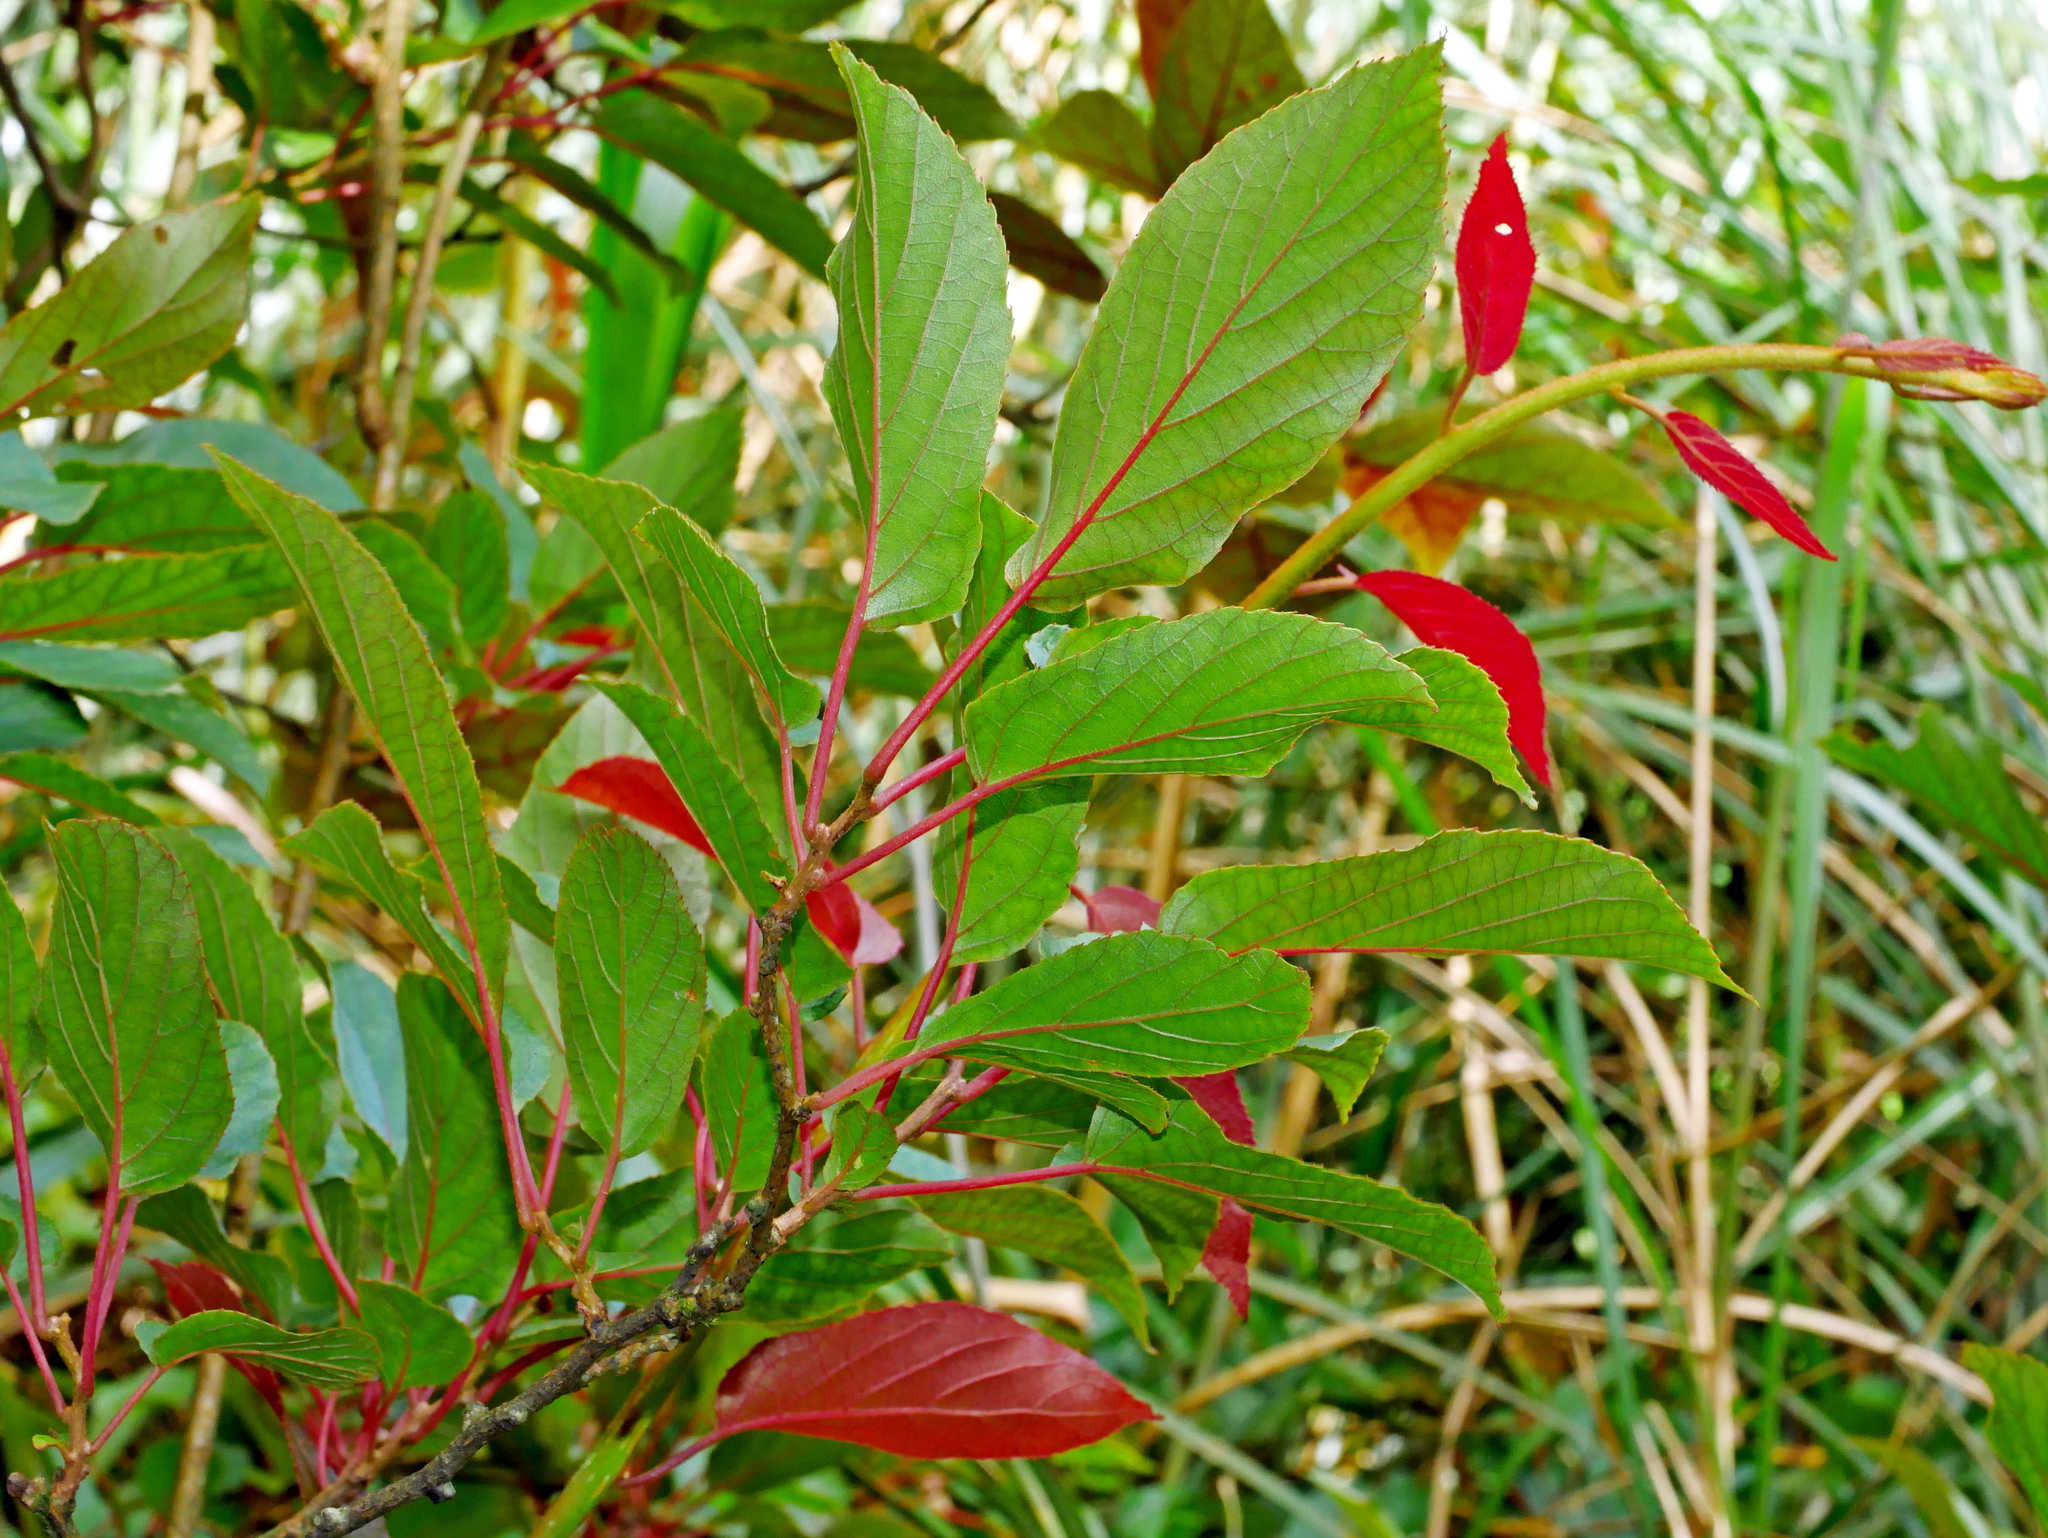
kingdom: Plantae
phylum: Tracheophyta
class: Magnoliopsida
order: Ericales
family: Actinidiaceae
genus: Actinidia
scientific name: Actinidia rufa
